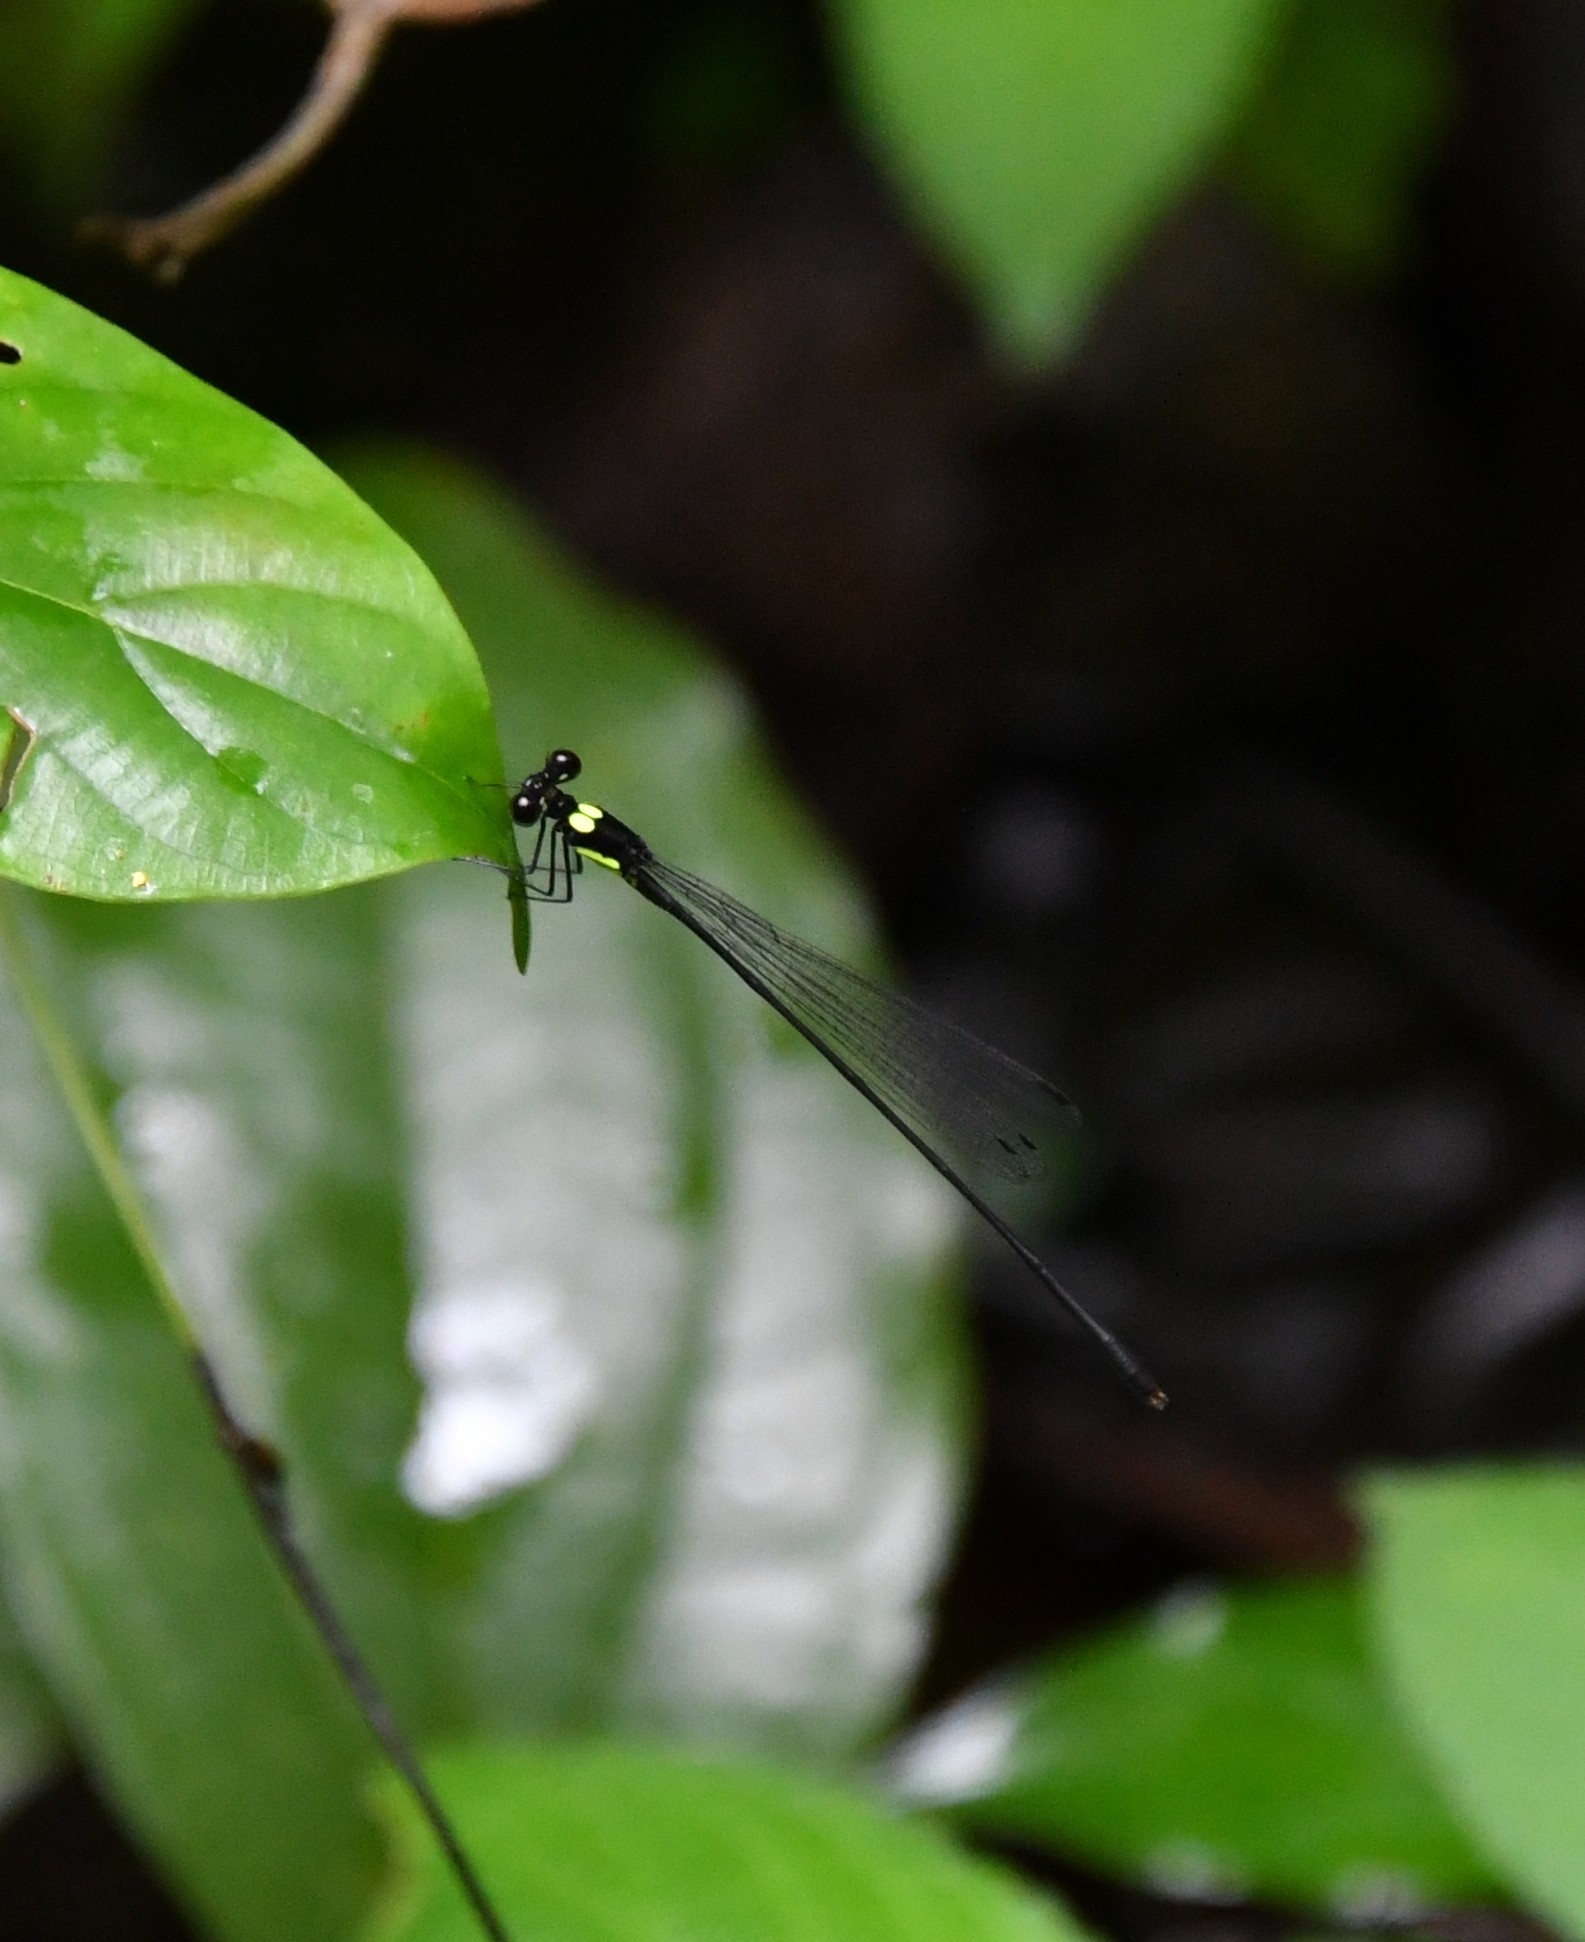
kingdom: Animalia
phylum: Arthropoda
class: Insecta
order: Odonata
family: Platycnemididae
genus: Coeliccia
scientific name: Coeliccia yamasakii
